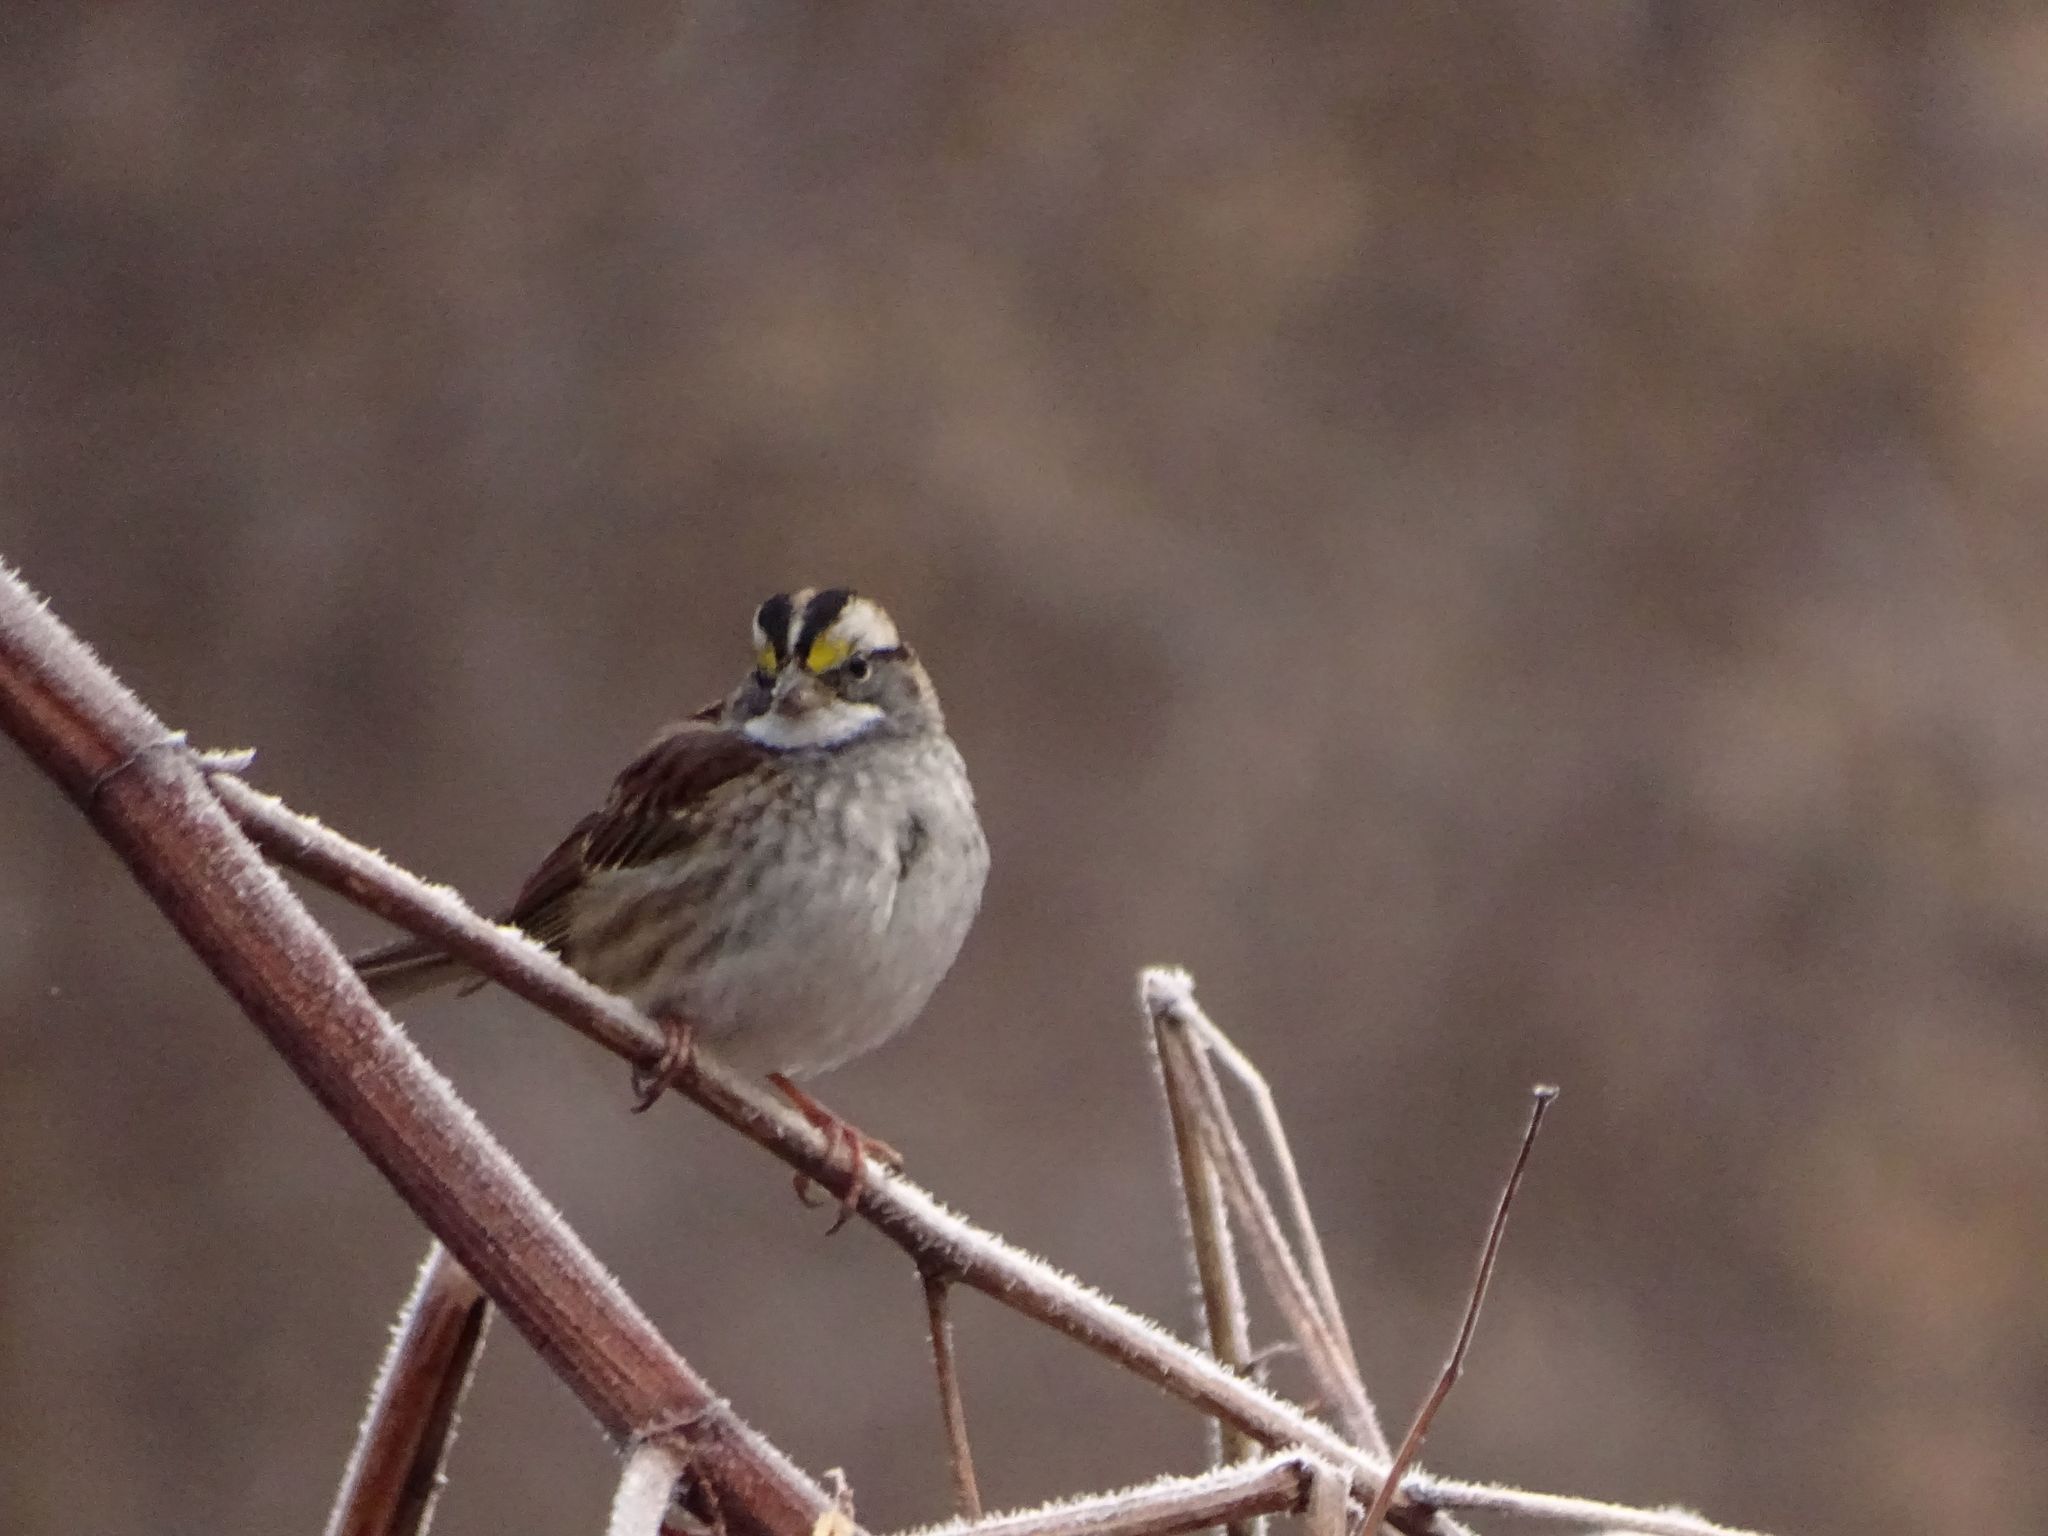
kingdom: Animalia
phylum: Chordata
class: Aves
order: Passeriformes
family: Passerellidae
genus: Zonotrichia
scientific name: Zonotrichia albicollis
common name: White-throated sparrow
